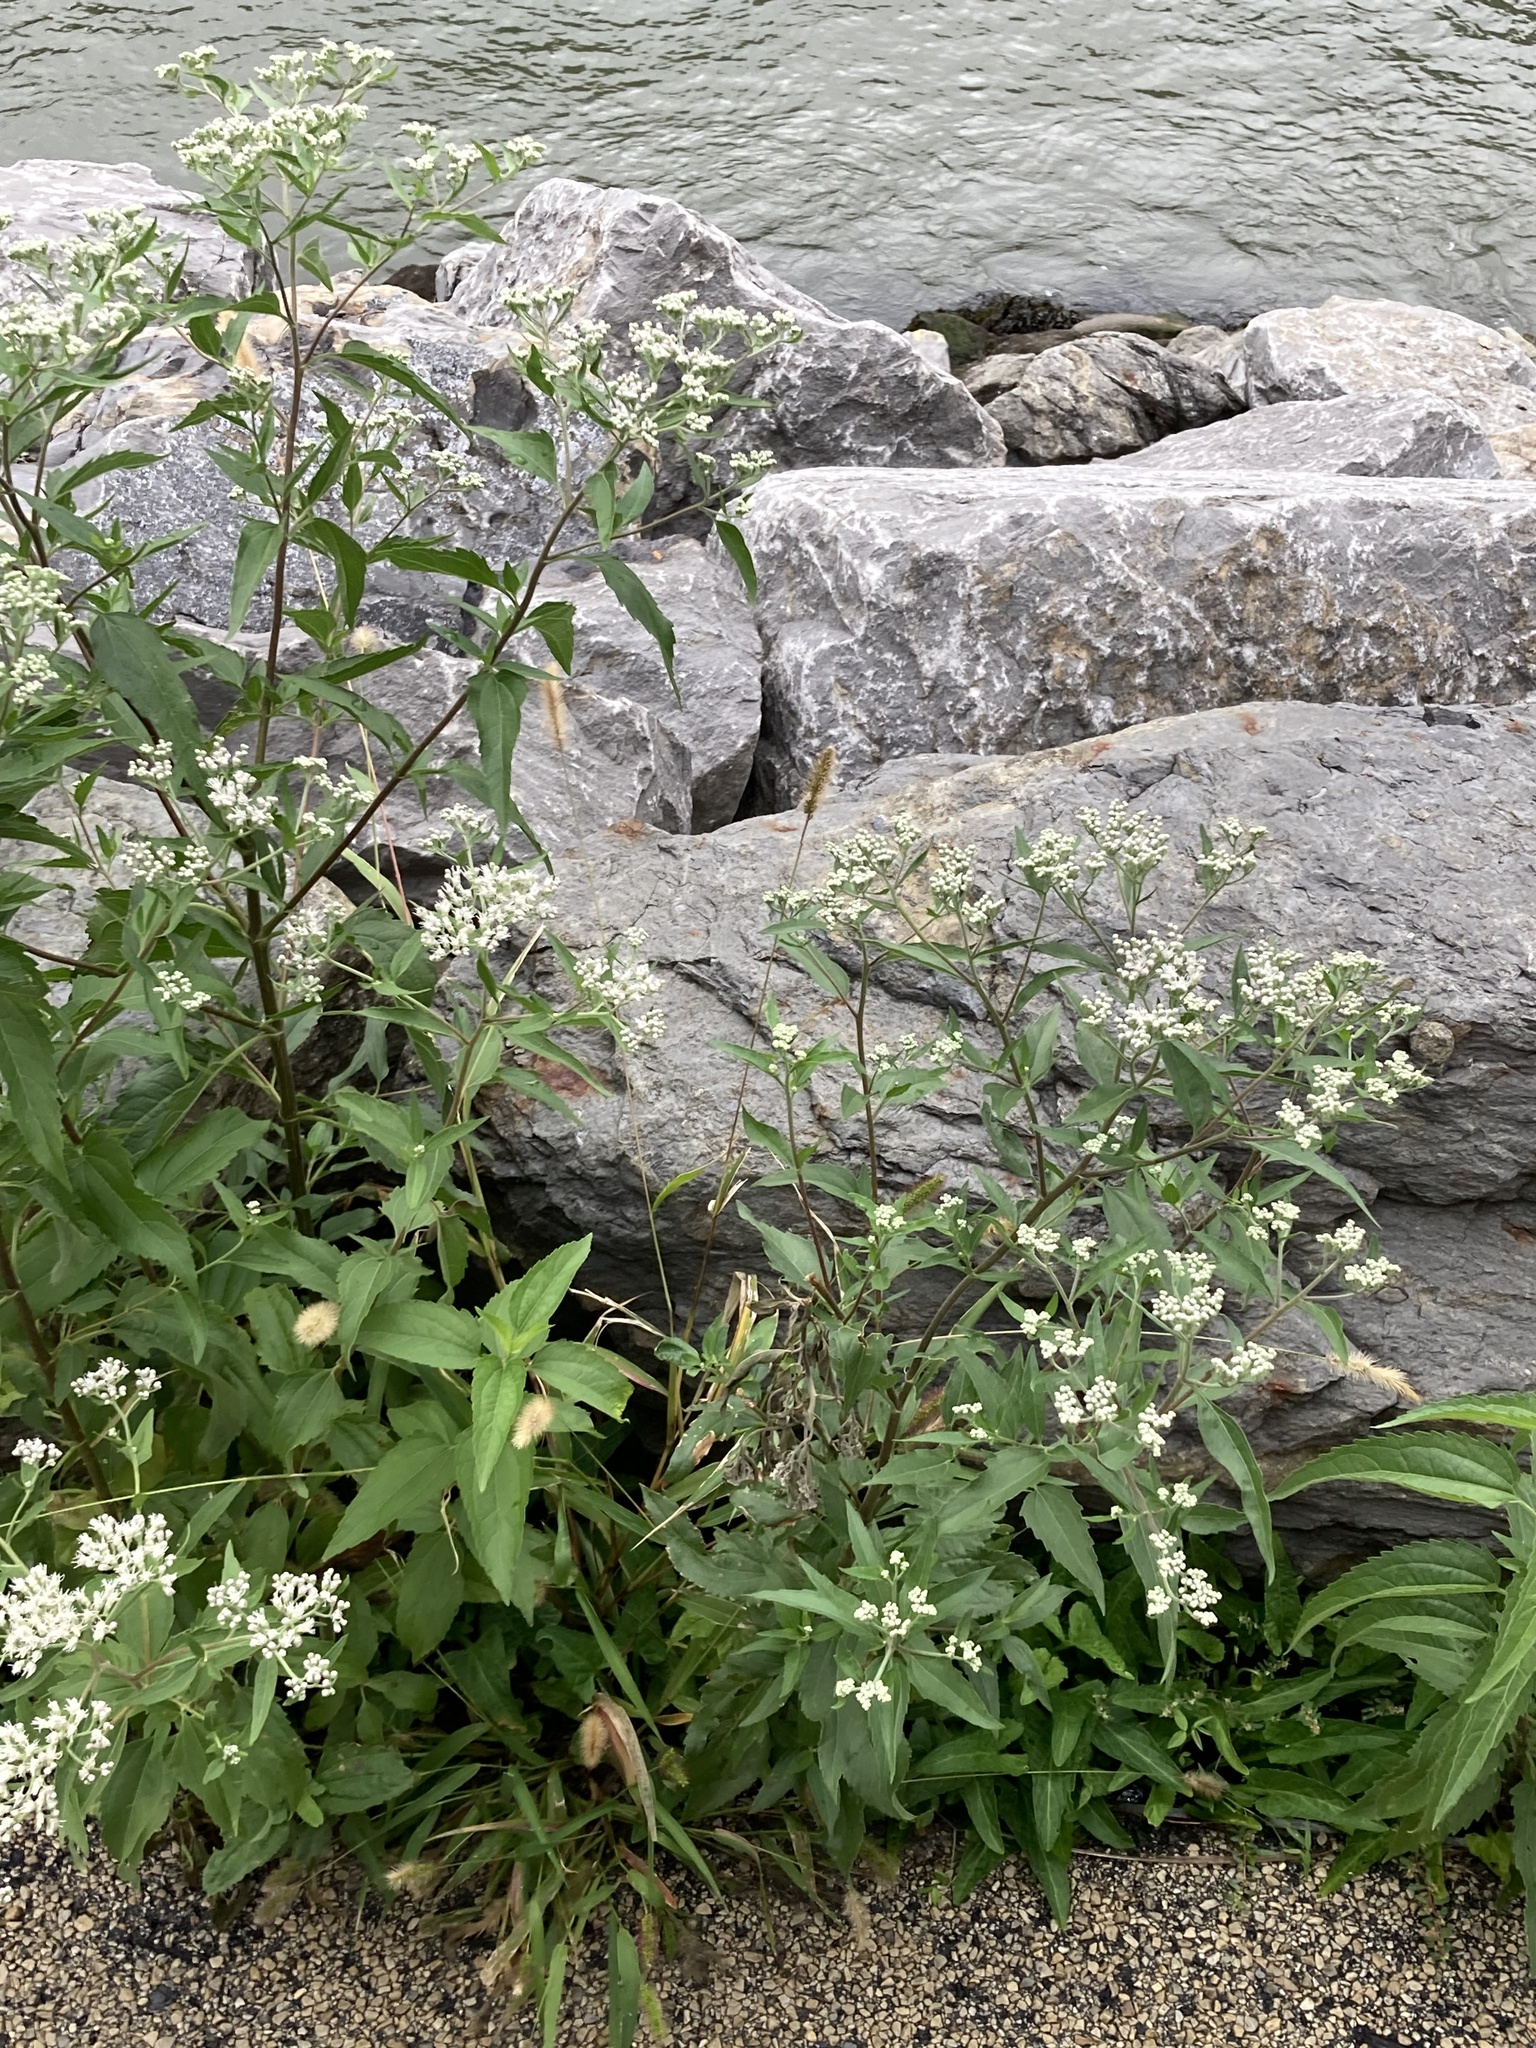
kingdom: Plantae
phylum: Tracheophyta
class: Magnoliopsida
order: Asterales
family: Asteraceae
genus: Eupatorium
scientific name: Eupatorium serotinum
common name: Late boneset
